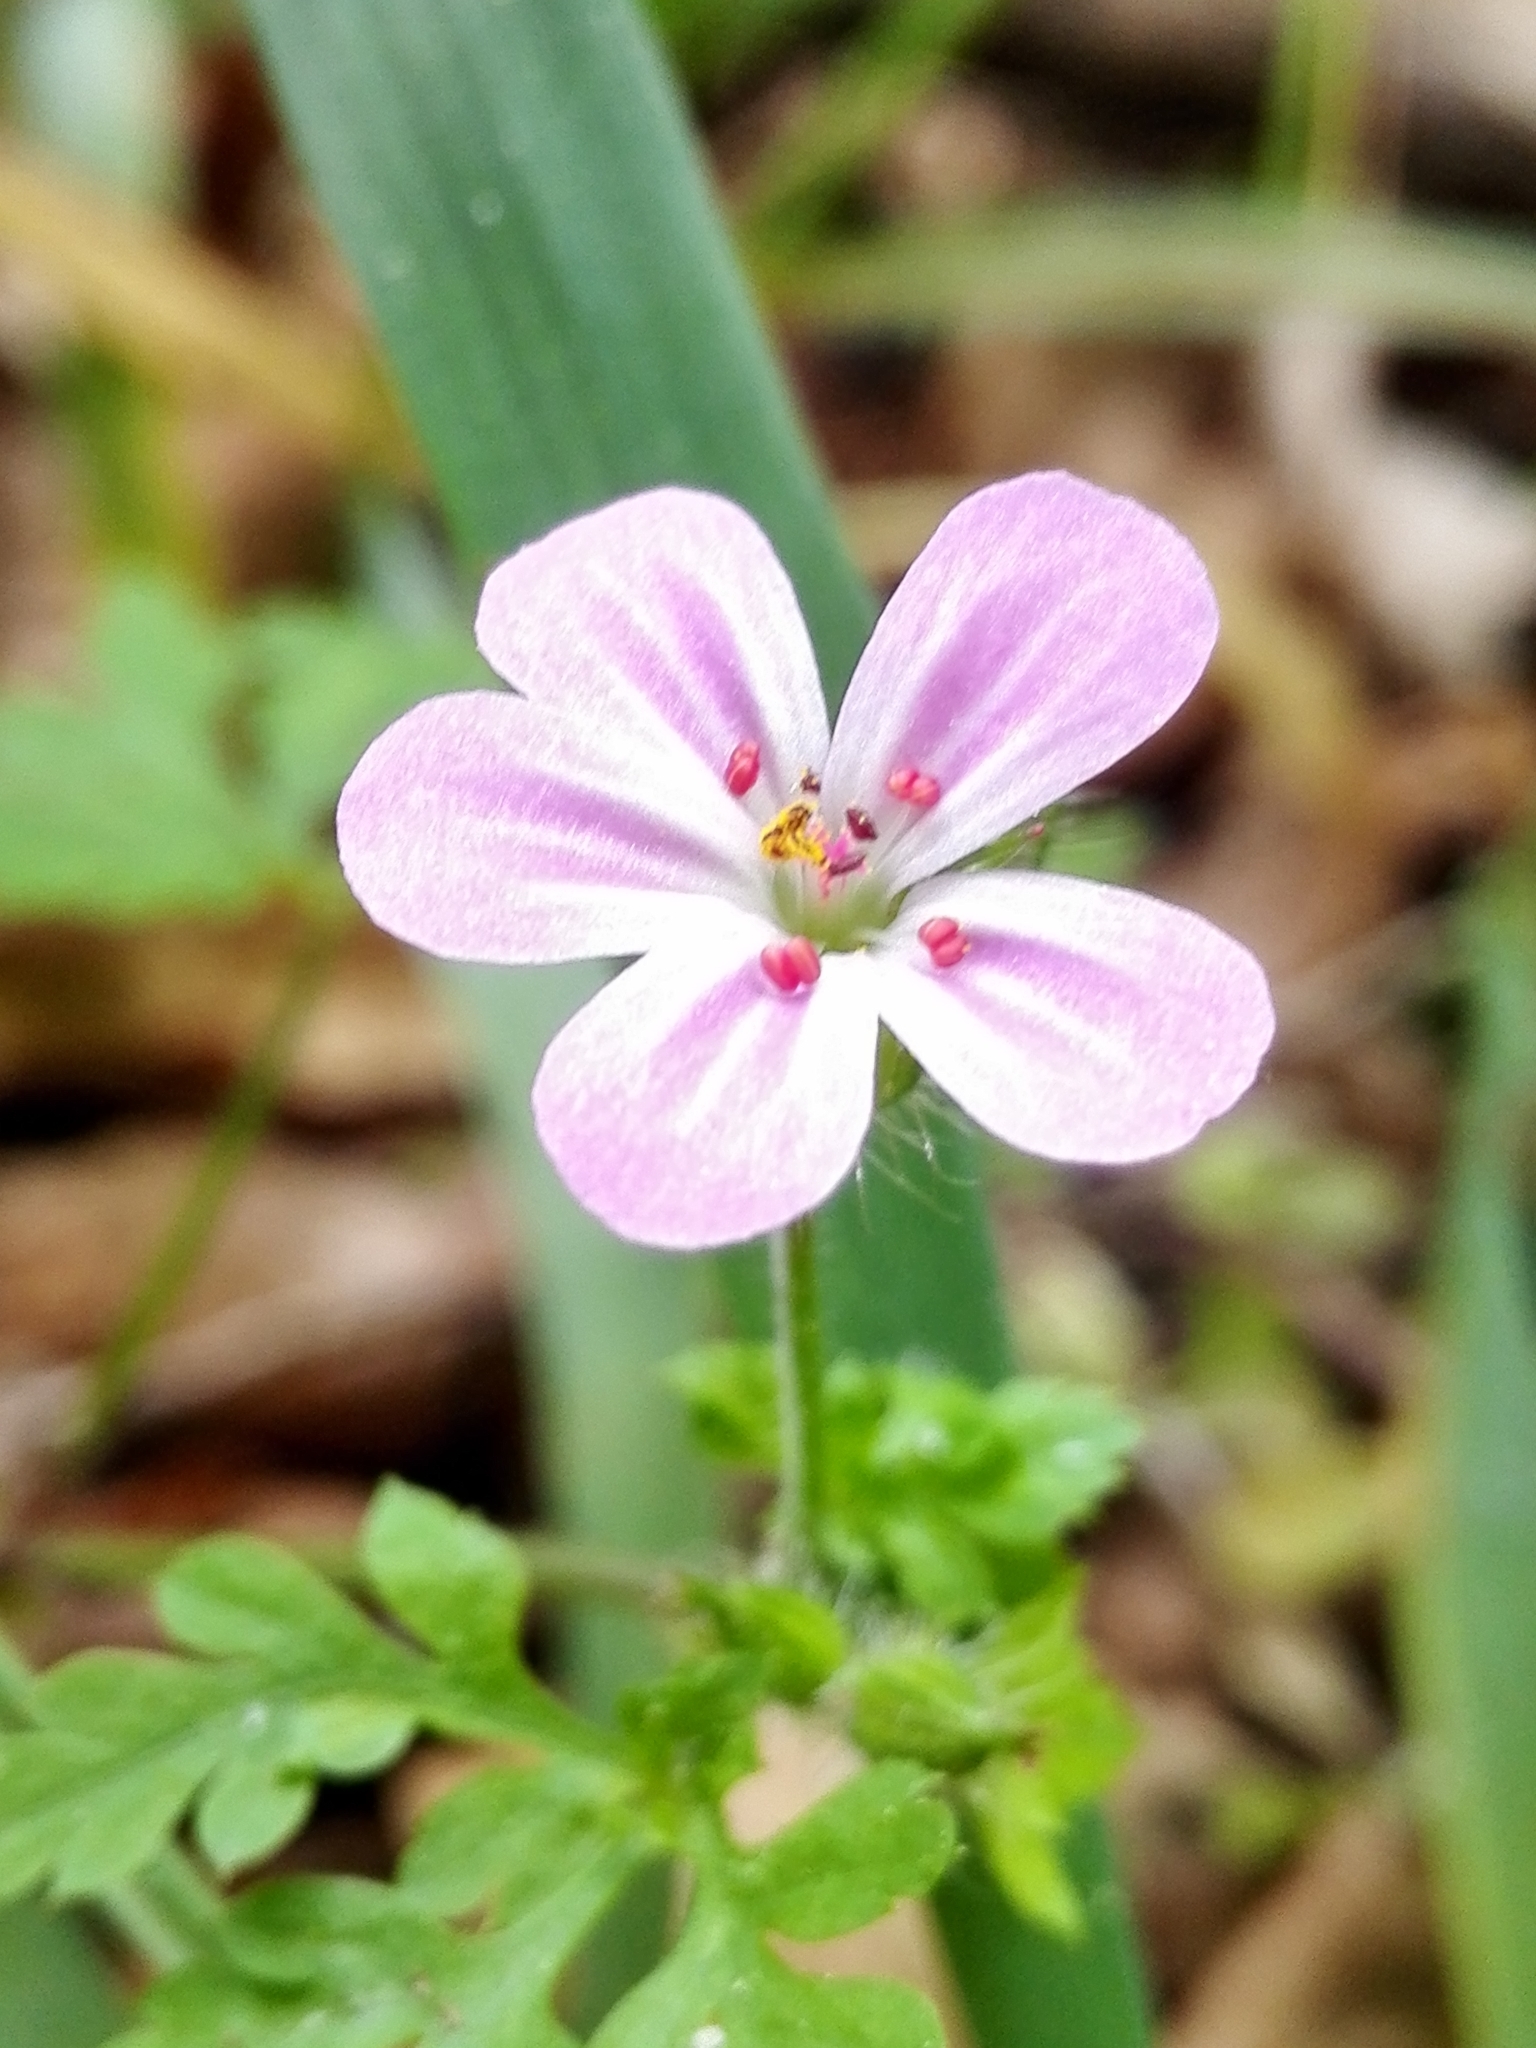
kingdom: Plantae
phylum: Tracheophyta
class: Magnoliopsida
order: Geraniales
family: Geraniaceae
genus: Geranium
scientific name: Geranium robertianum
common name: Herb-robert
